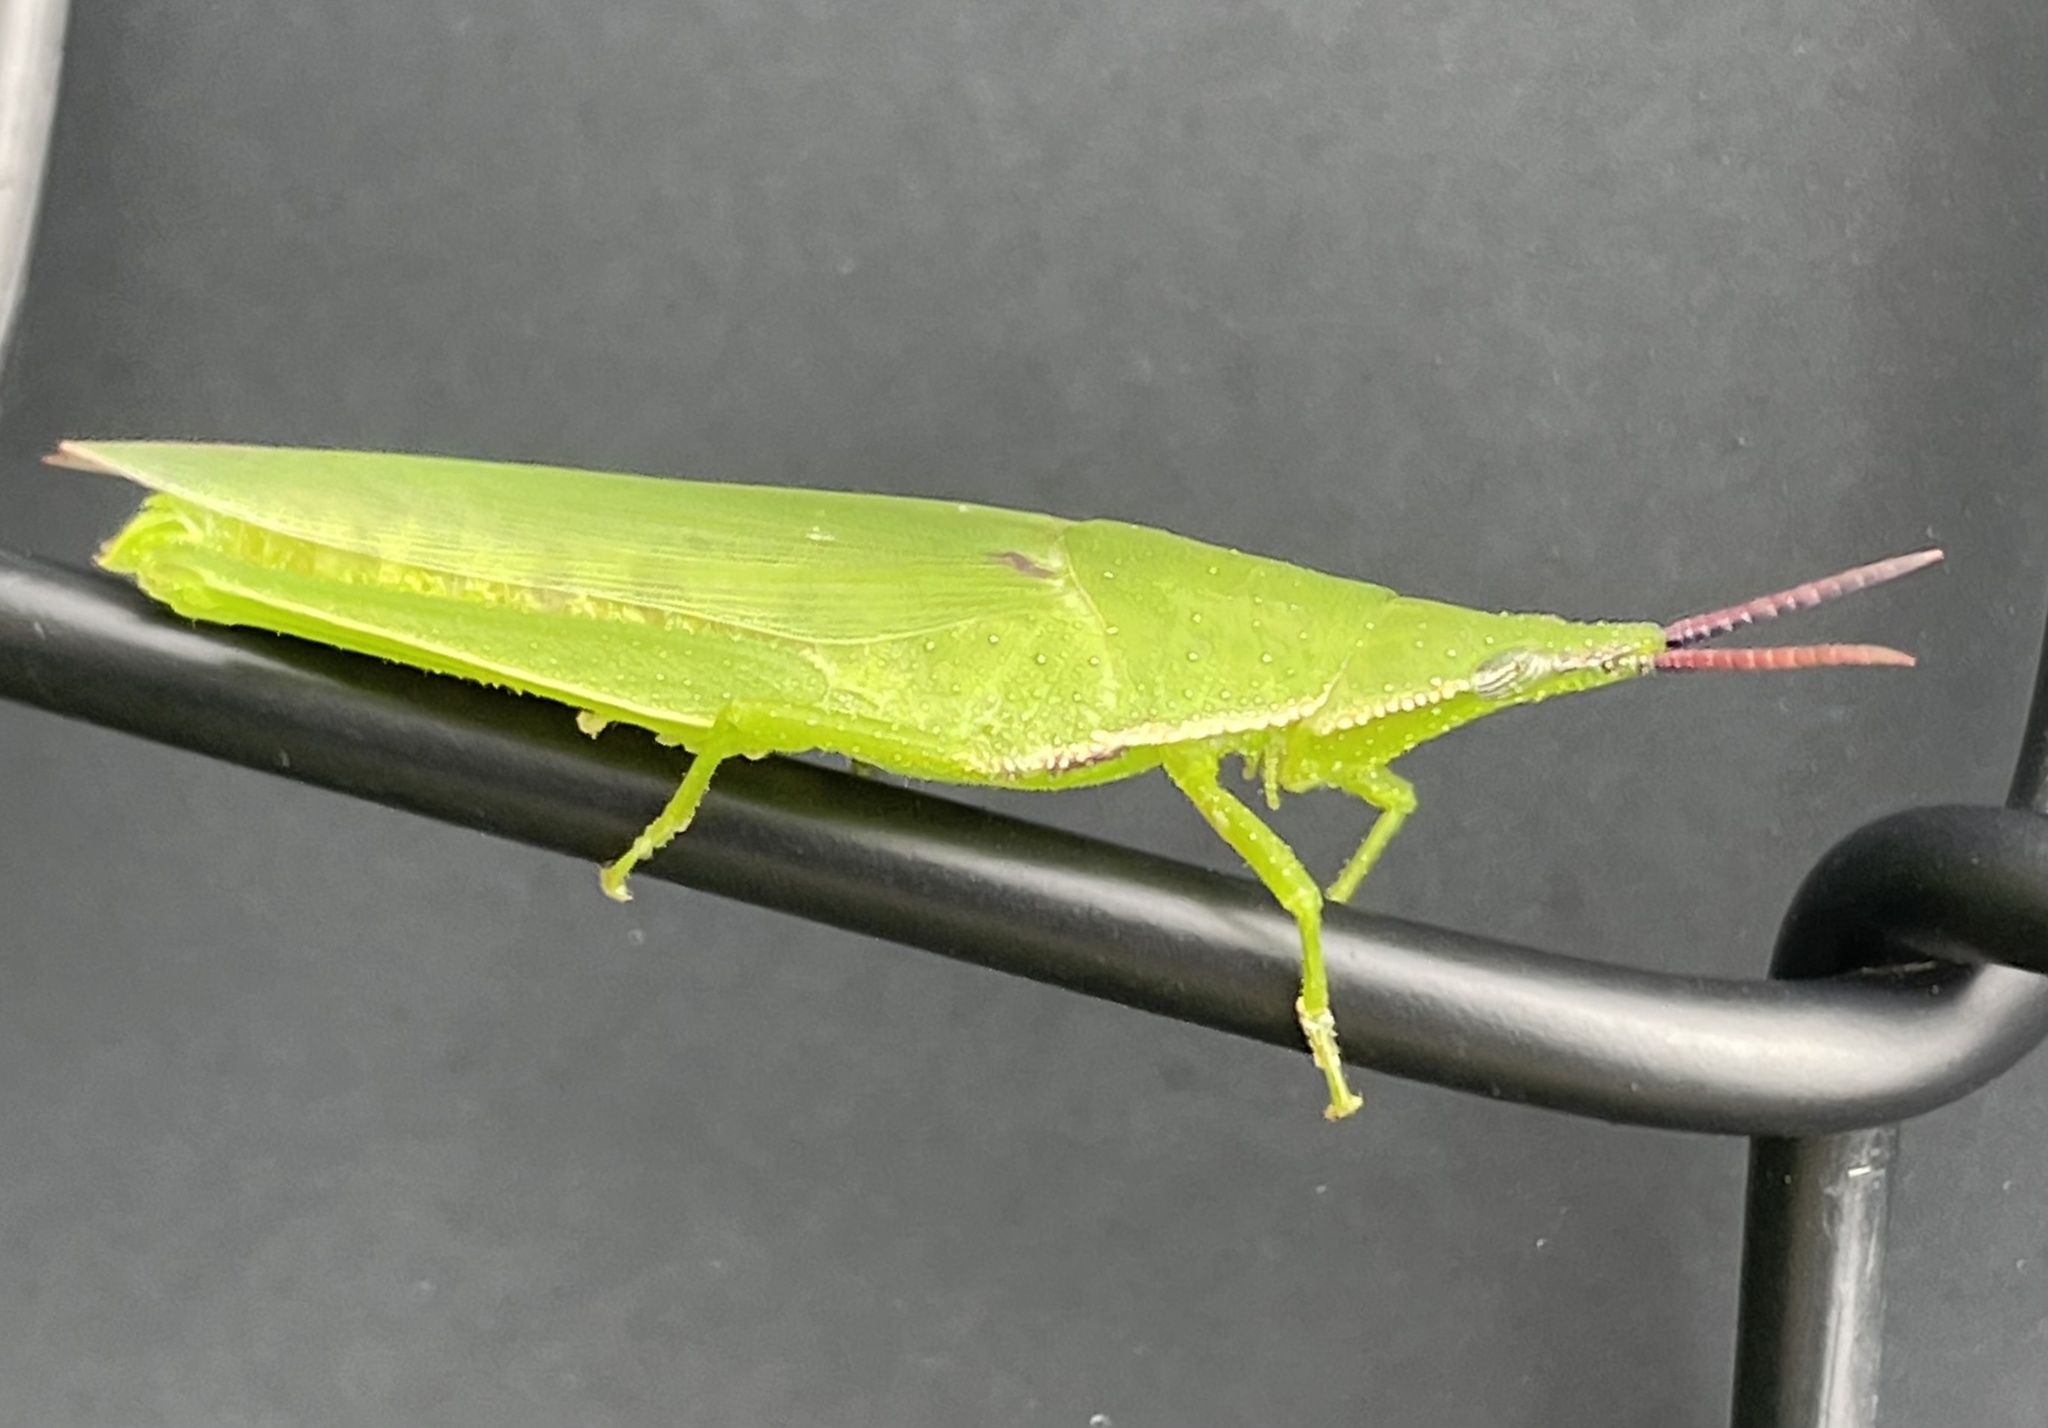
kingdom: Animalia
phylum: Arthropoda
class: Insecta
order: Orthoptera
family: Pyrgomorphidae
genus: Atractomorpha
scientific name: Atractomorpha australis
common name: Australian grass pyrgomorph
